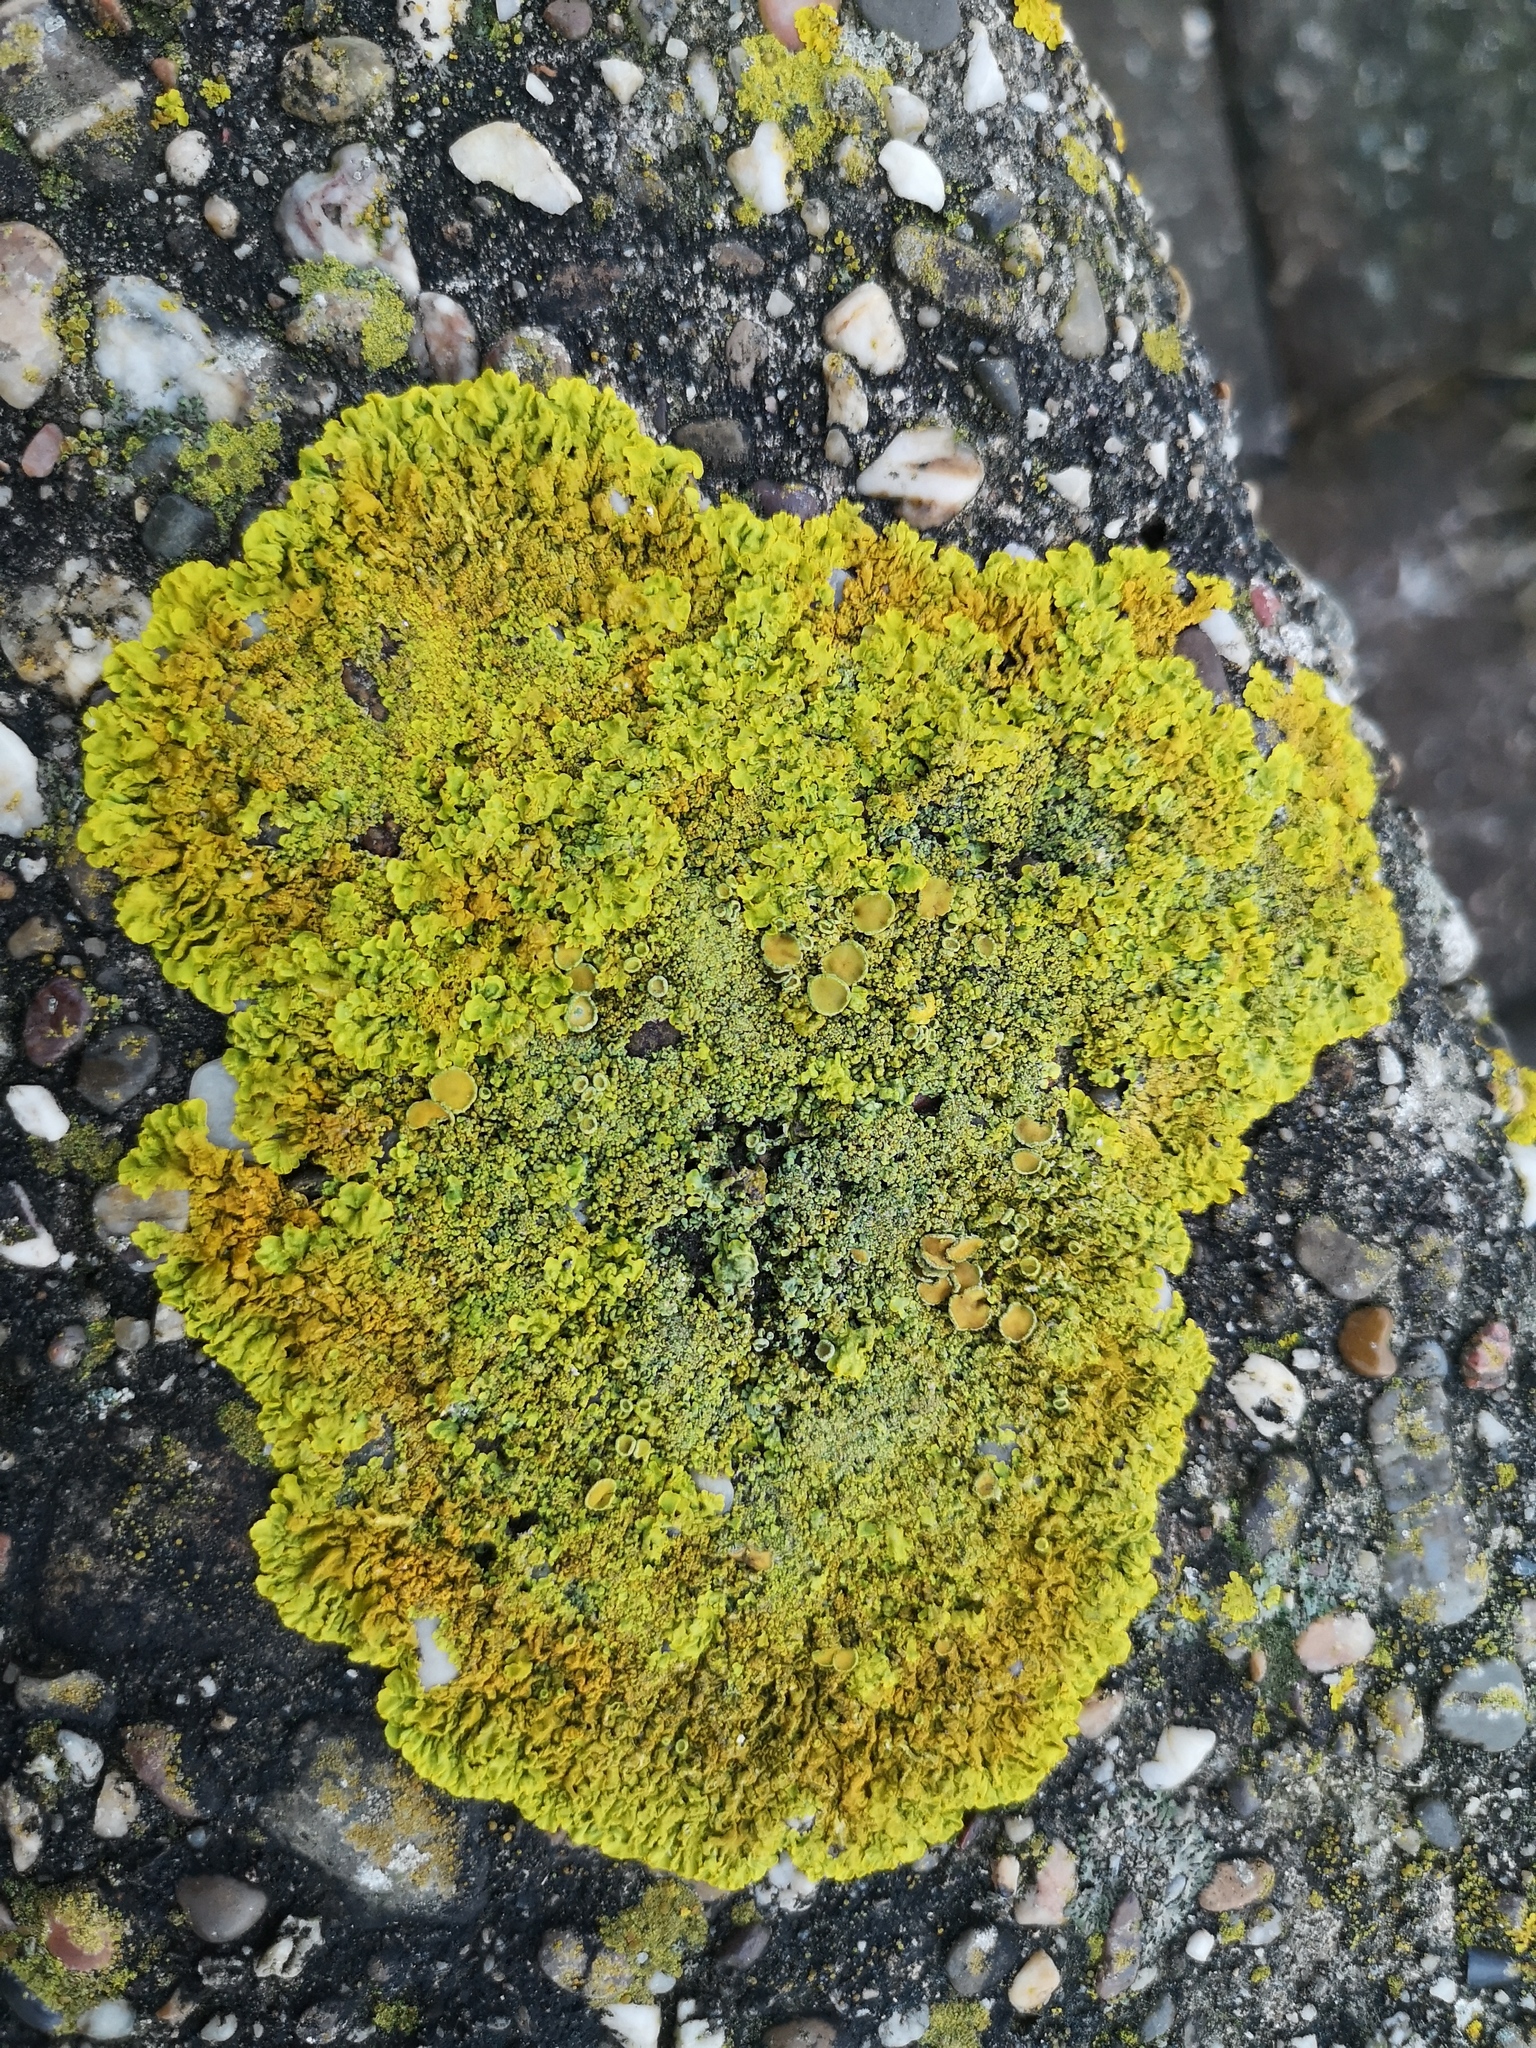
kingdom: Fungi
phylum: Ascomycota
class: Lecanoromycetes
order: Teloschistales
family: Teloschistaceae
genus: Xanthoria
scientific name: Xanthoria calcicola
